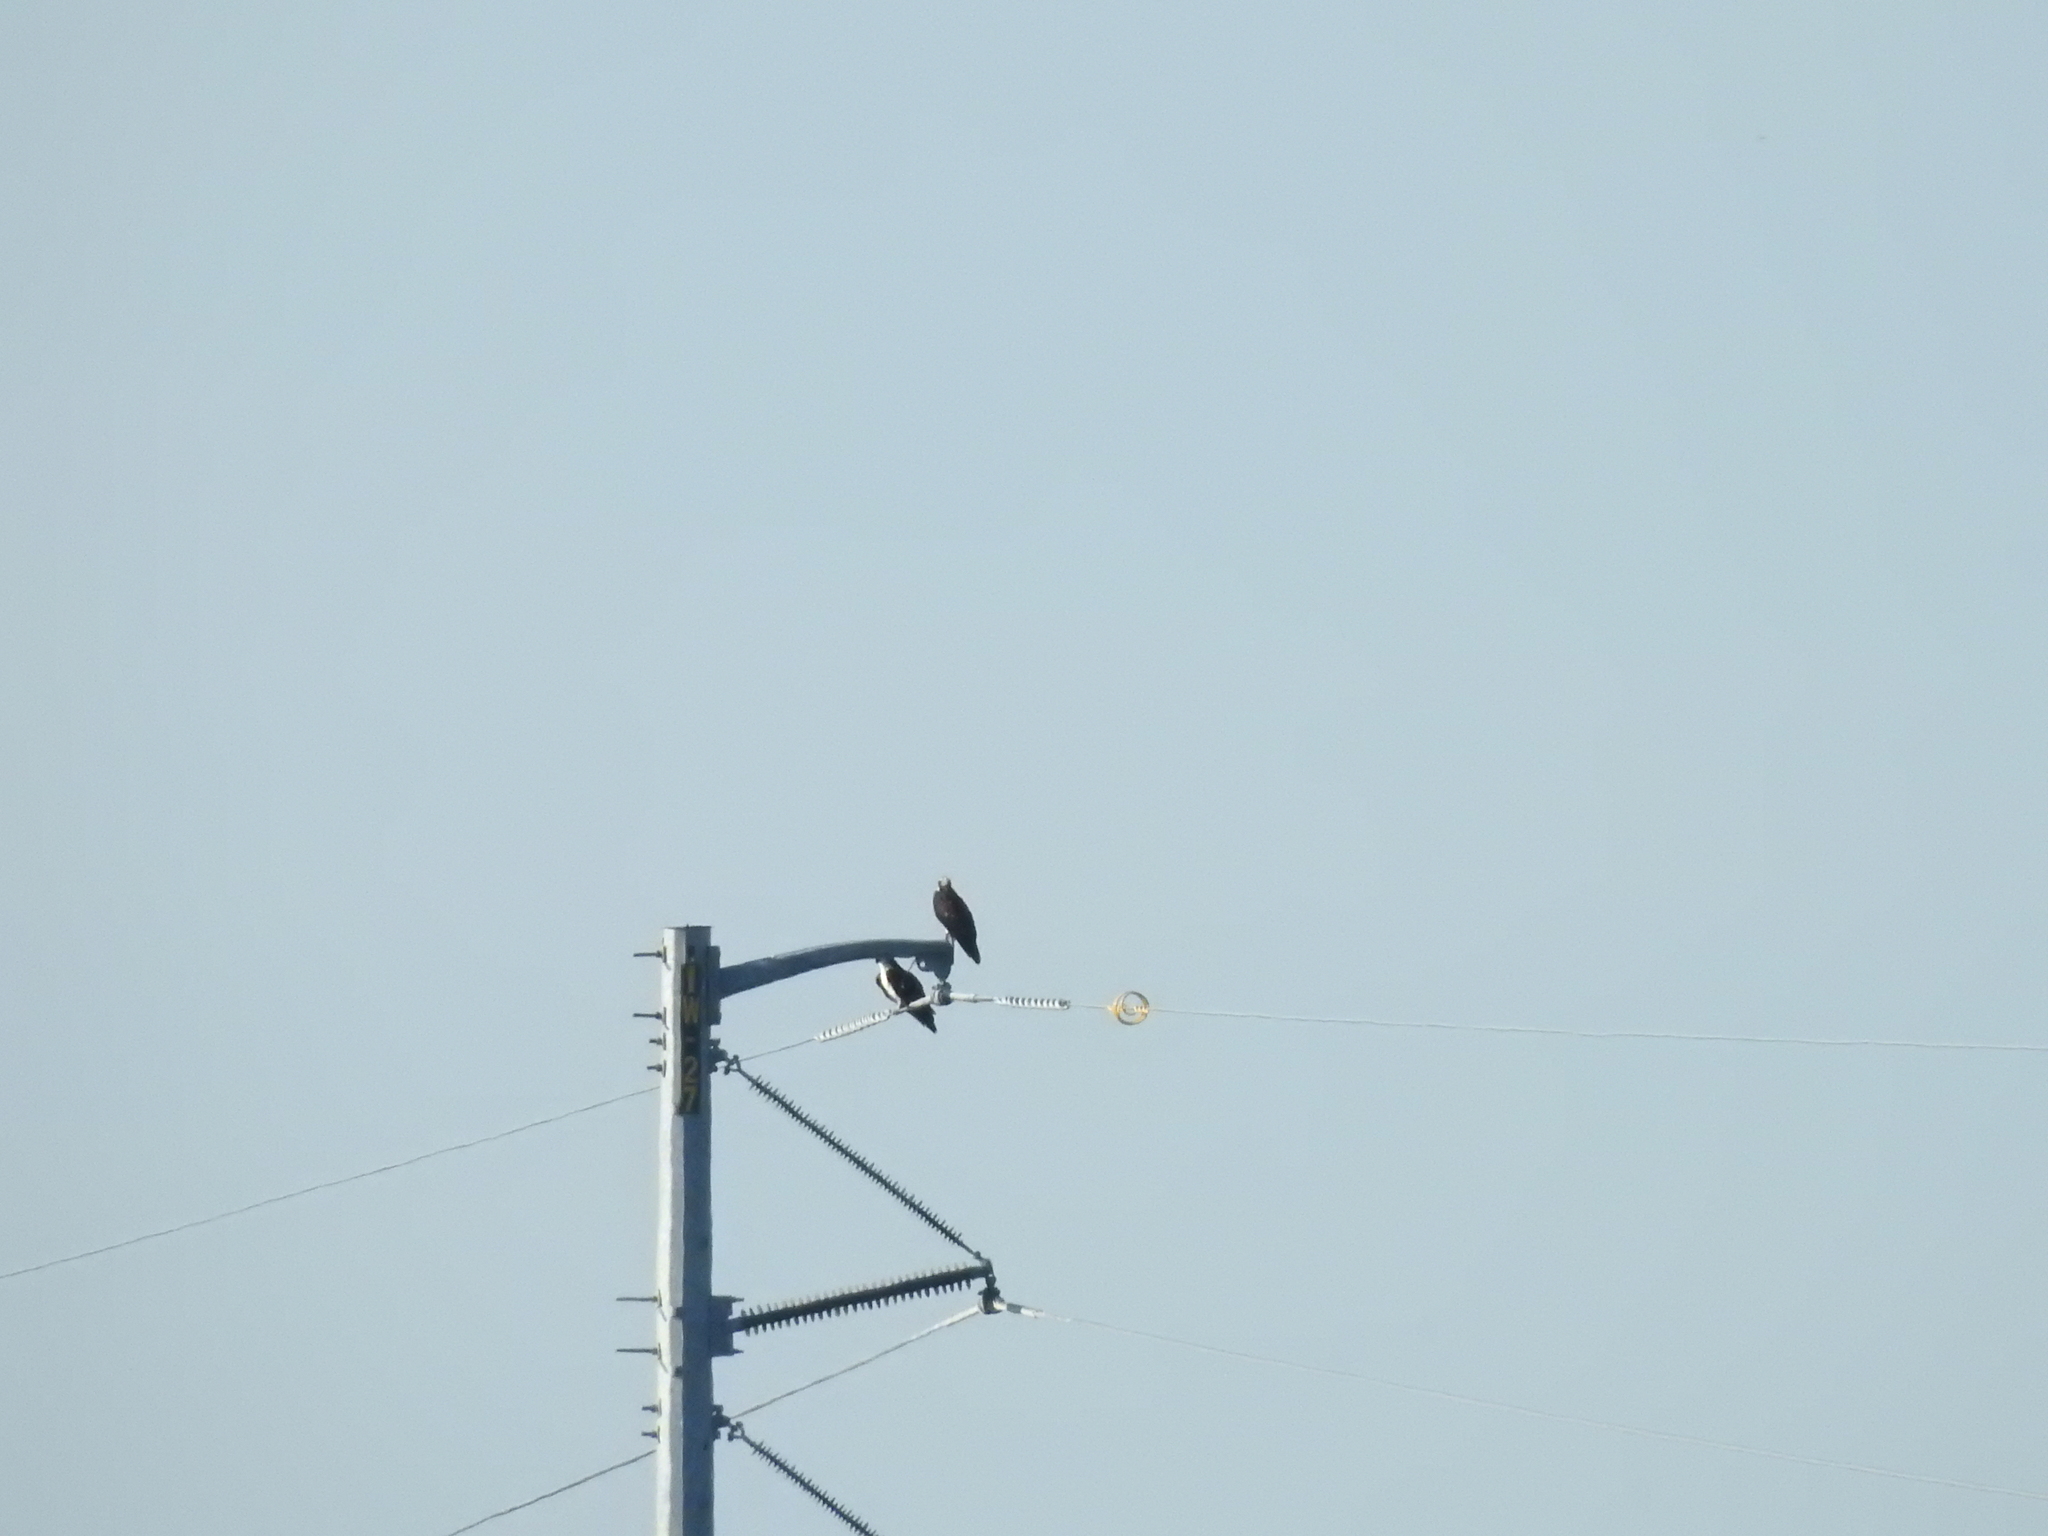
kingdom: Animalia
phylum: Chordata
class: Aves
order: Accipitriformes
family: Pandionidae
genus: Pandion
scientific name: Pandion haliaetus
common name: Osprey
